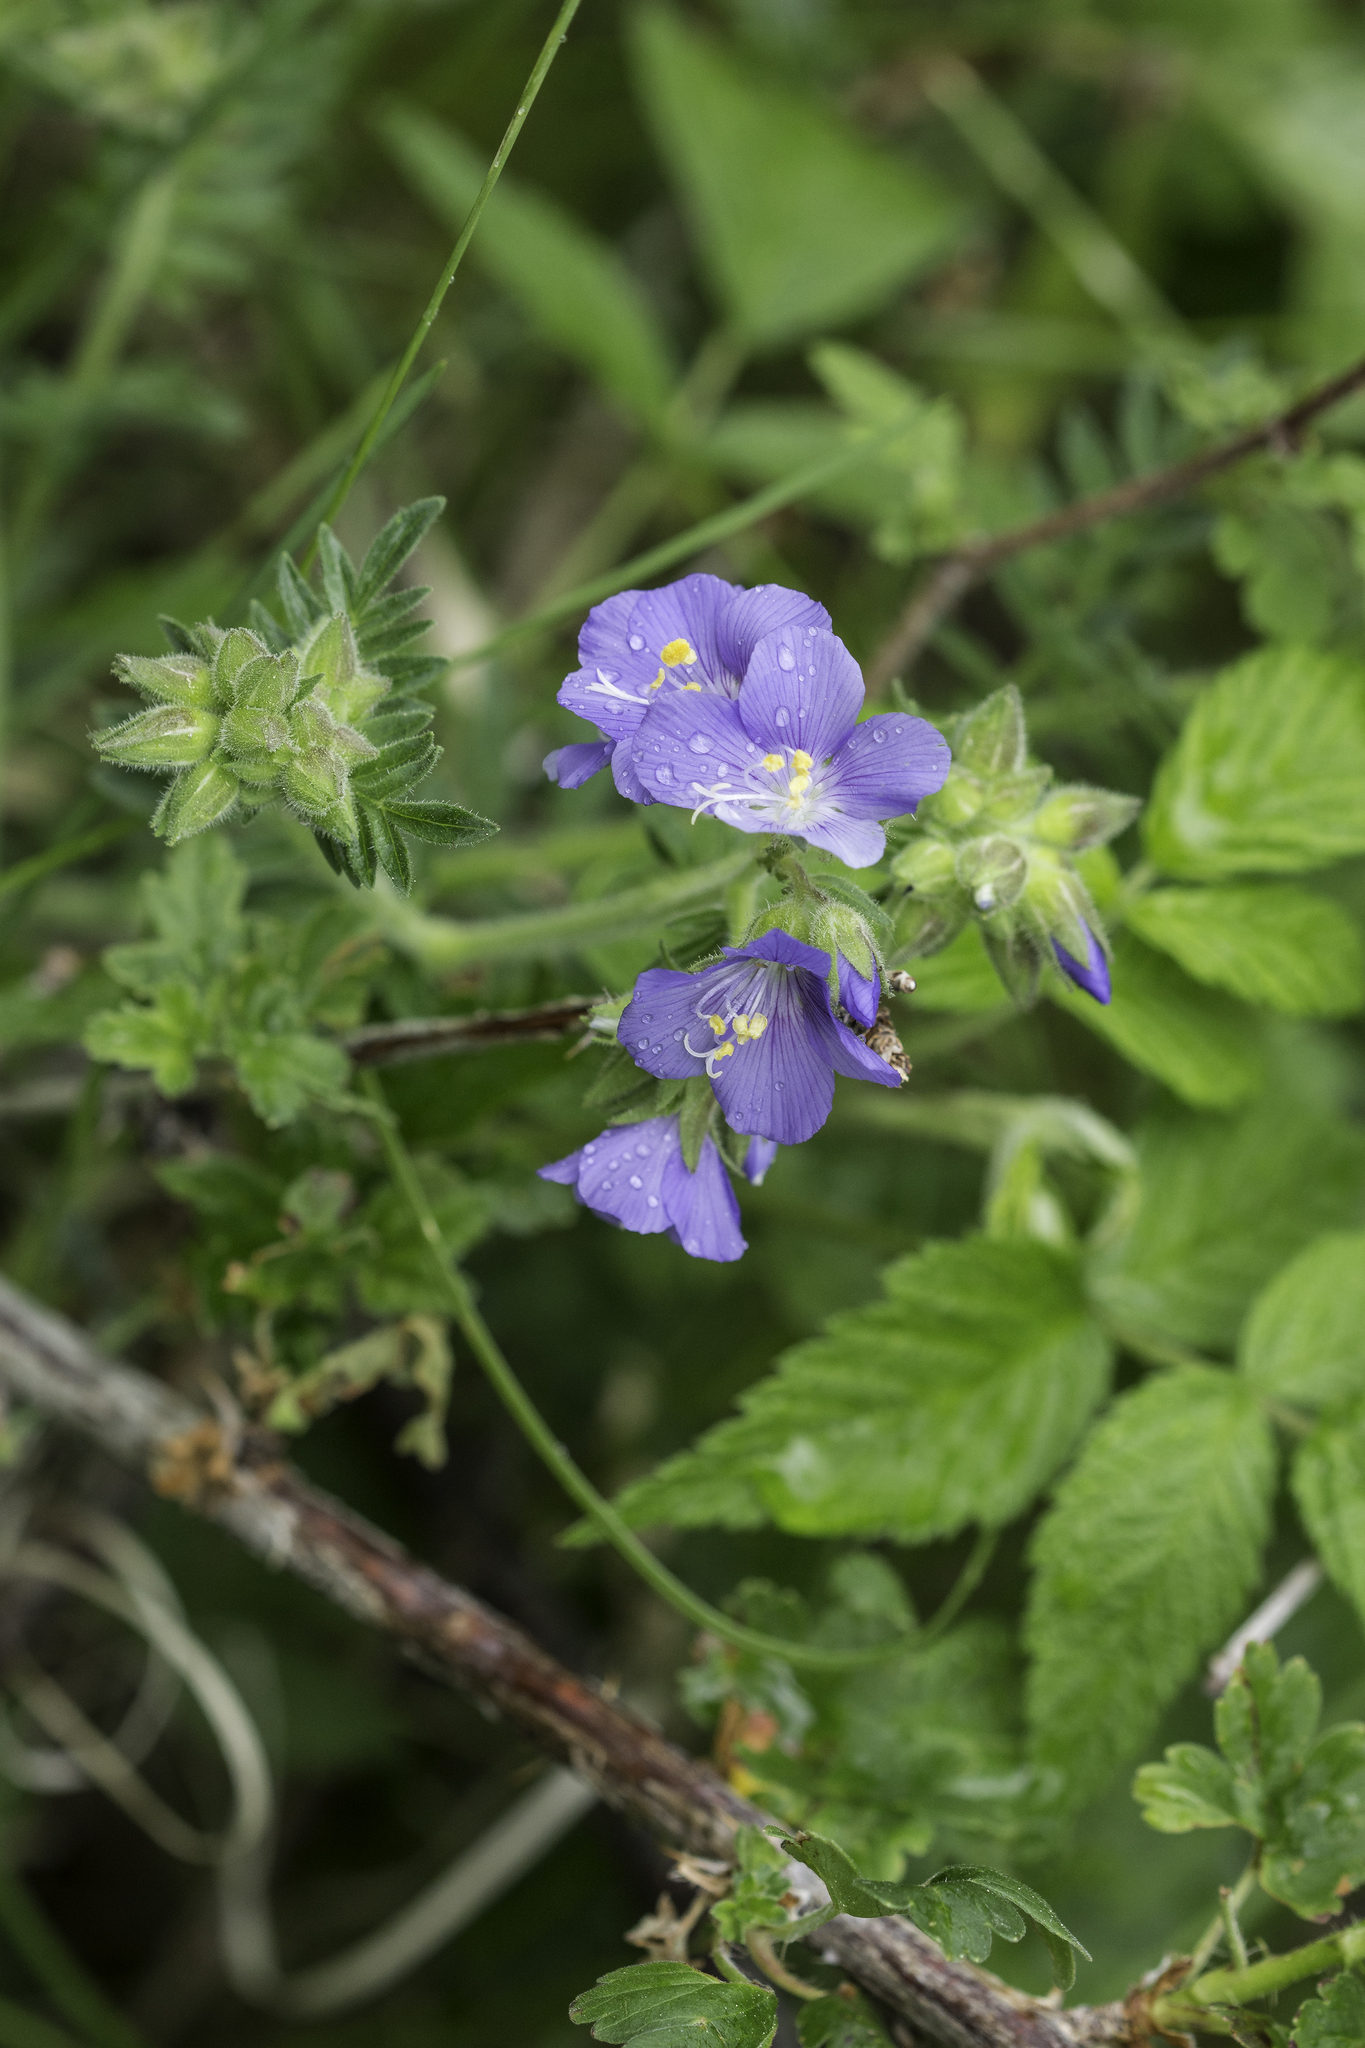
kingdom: Plantae
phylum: Tracheophyta
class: Magnoliopsida
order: Ericales
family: Polemoniaceae
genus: Polemonium
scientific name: Polemonium foliosissimum
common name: Leafy jacob's-ladder
